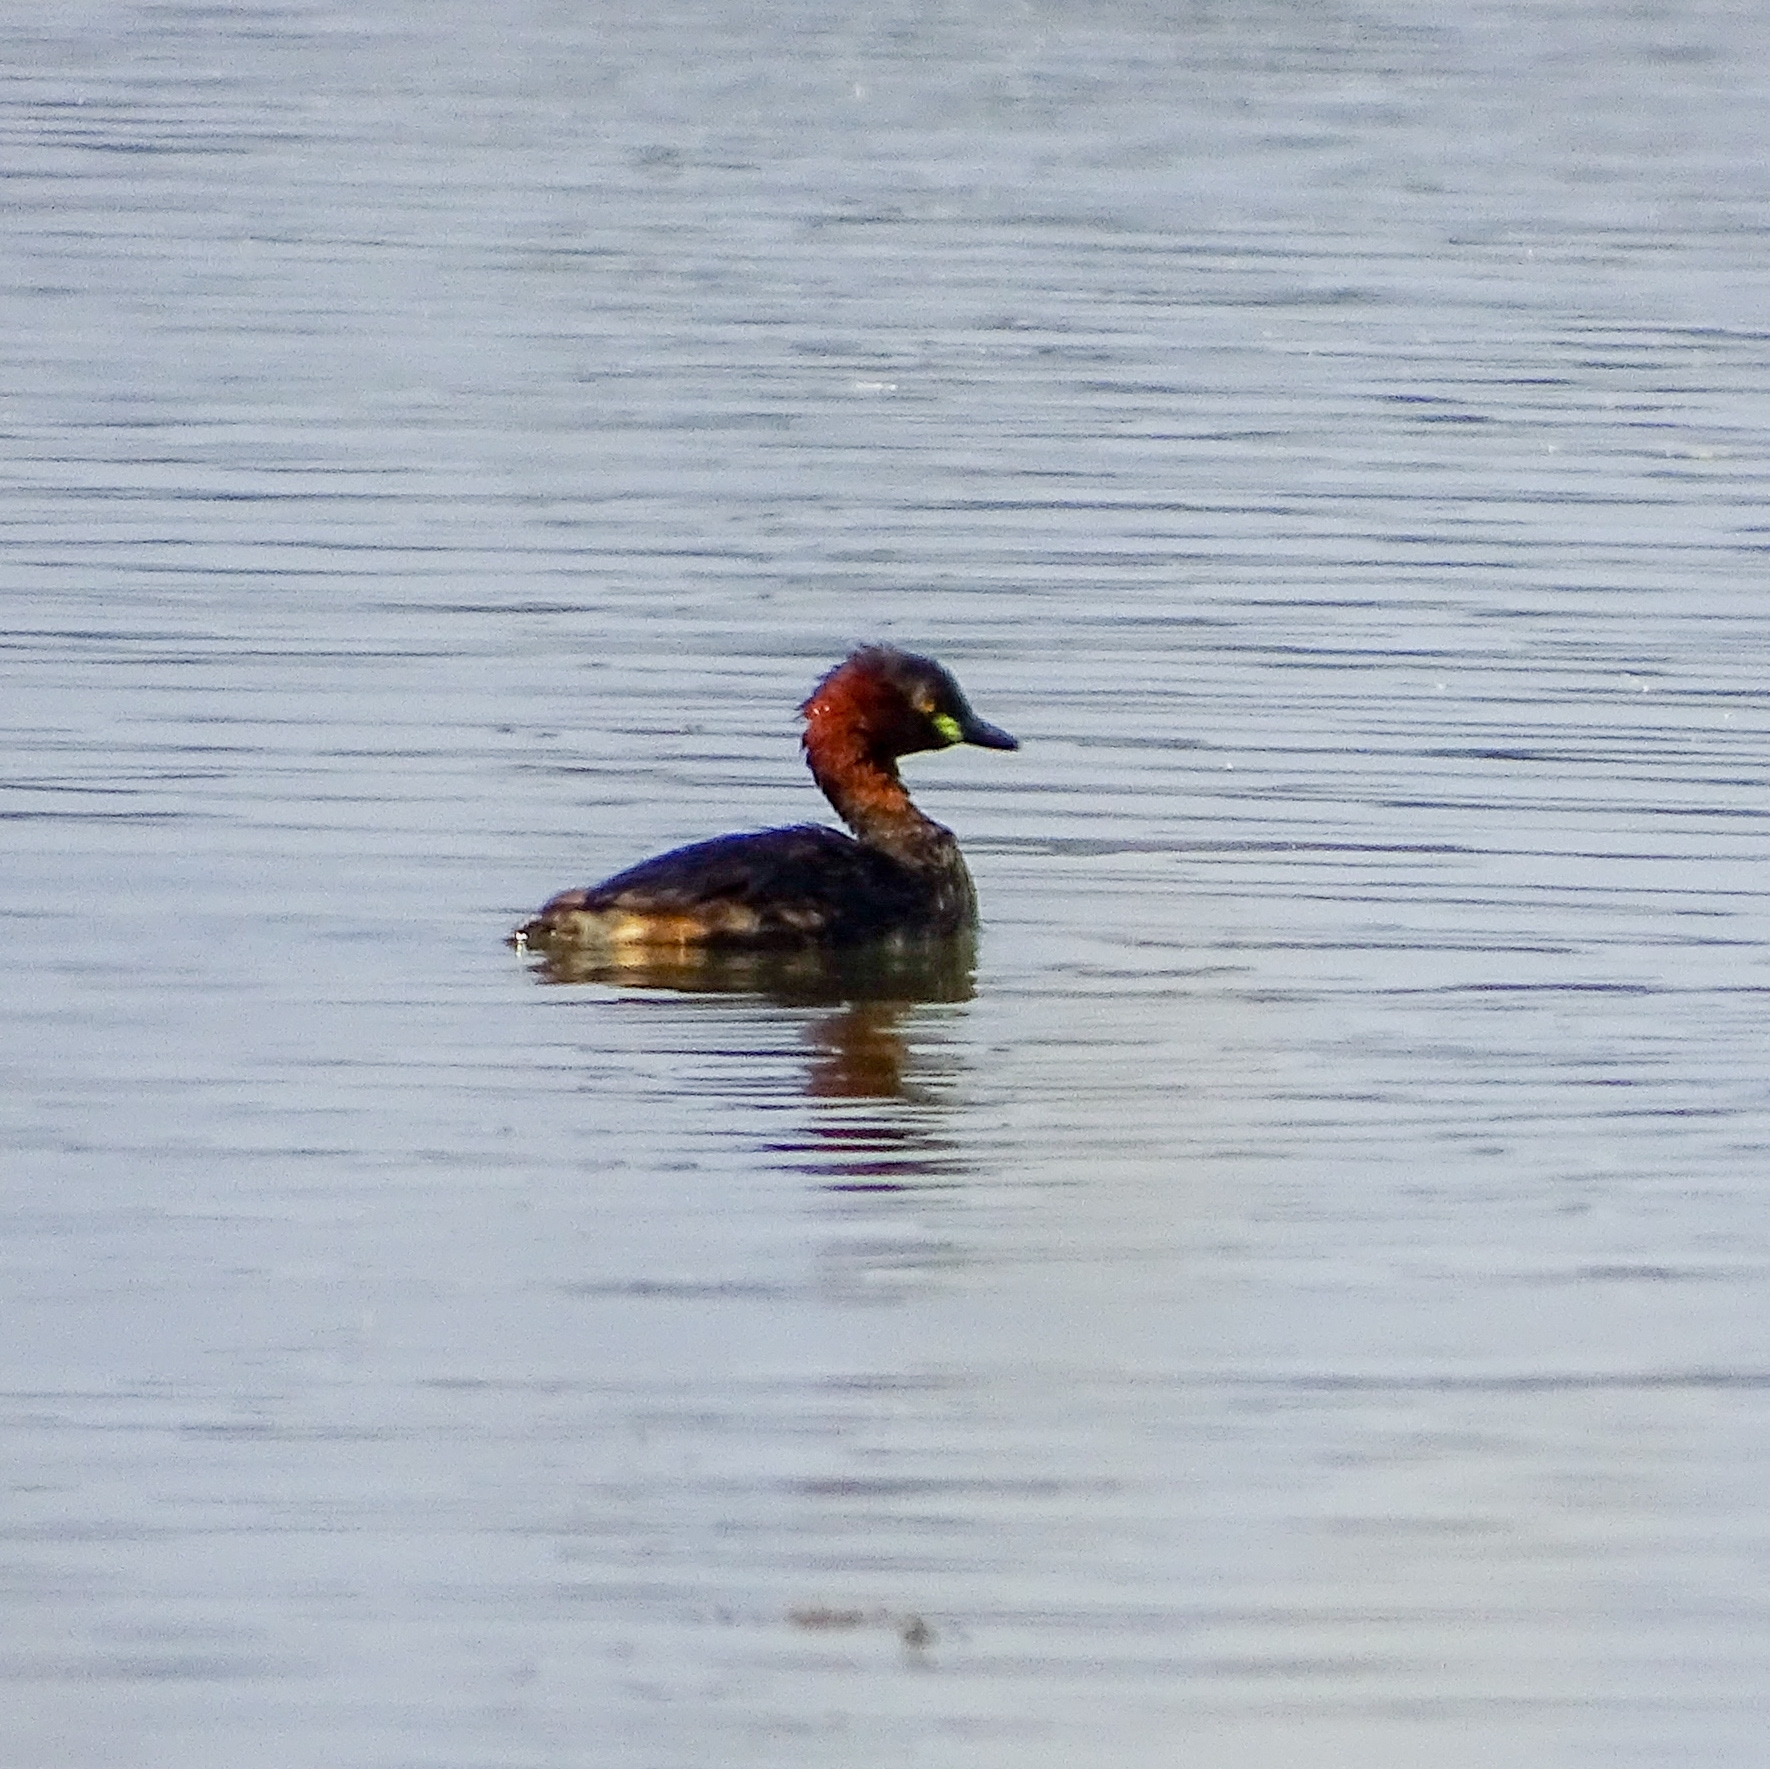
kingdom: Animalia
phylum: Chordata
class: Aves
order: Podicipediformes
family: Podicipedidae
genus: Tachybaptus
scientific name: Tachybaptus ruficollis
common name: Little grebe
